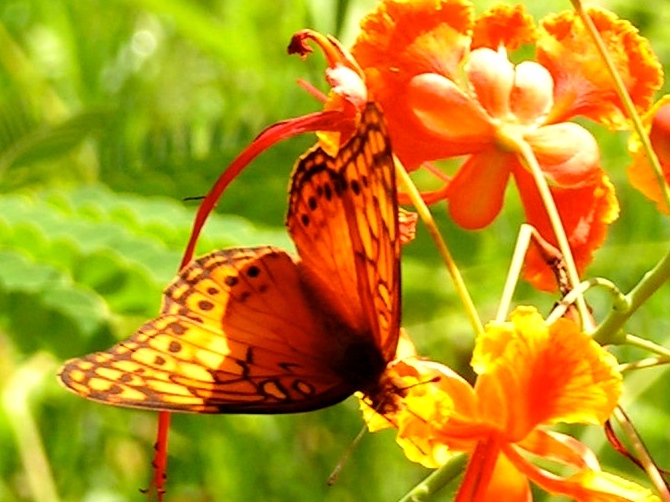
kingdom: Plantae
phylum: Tracheophyta
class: Magnoliopsida
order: Fabales
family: Fabaceae
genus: Caesalpinia
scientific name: Caesalpinia pulcherrima
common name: Pride-of-barbados
